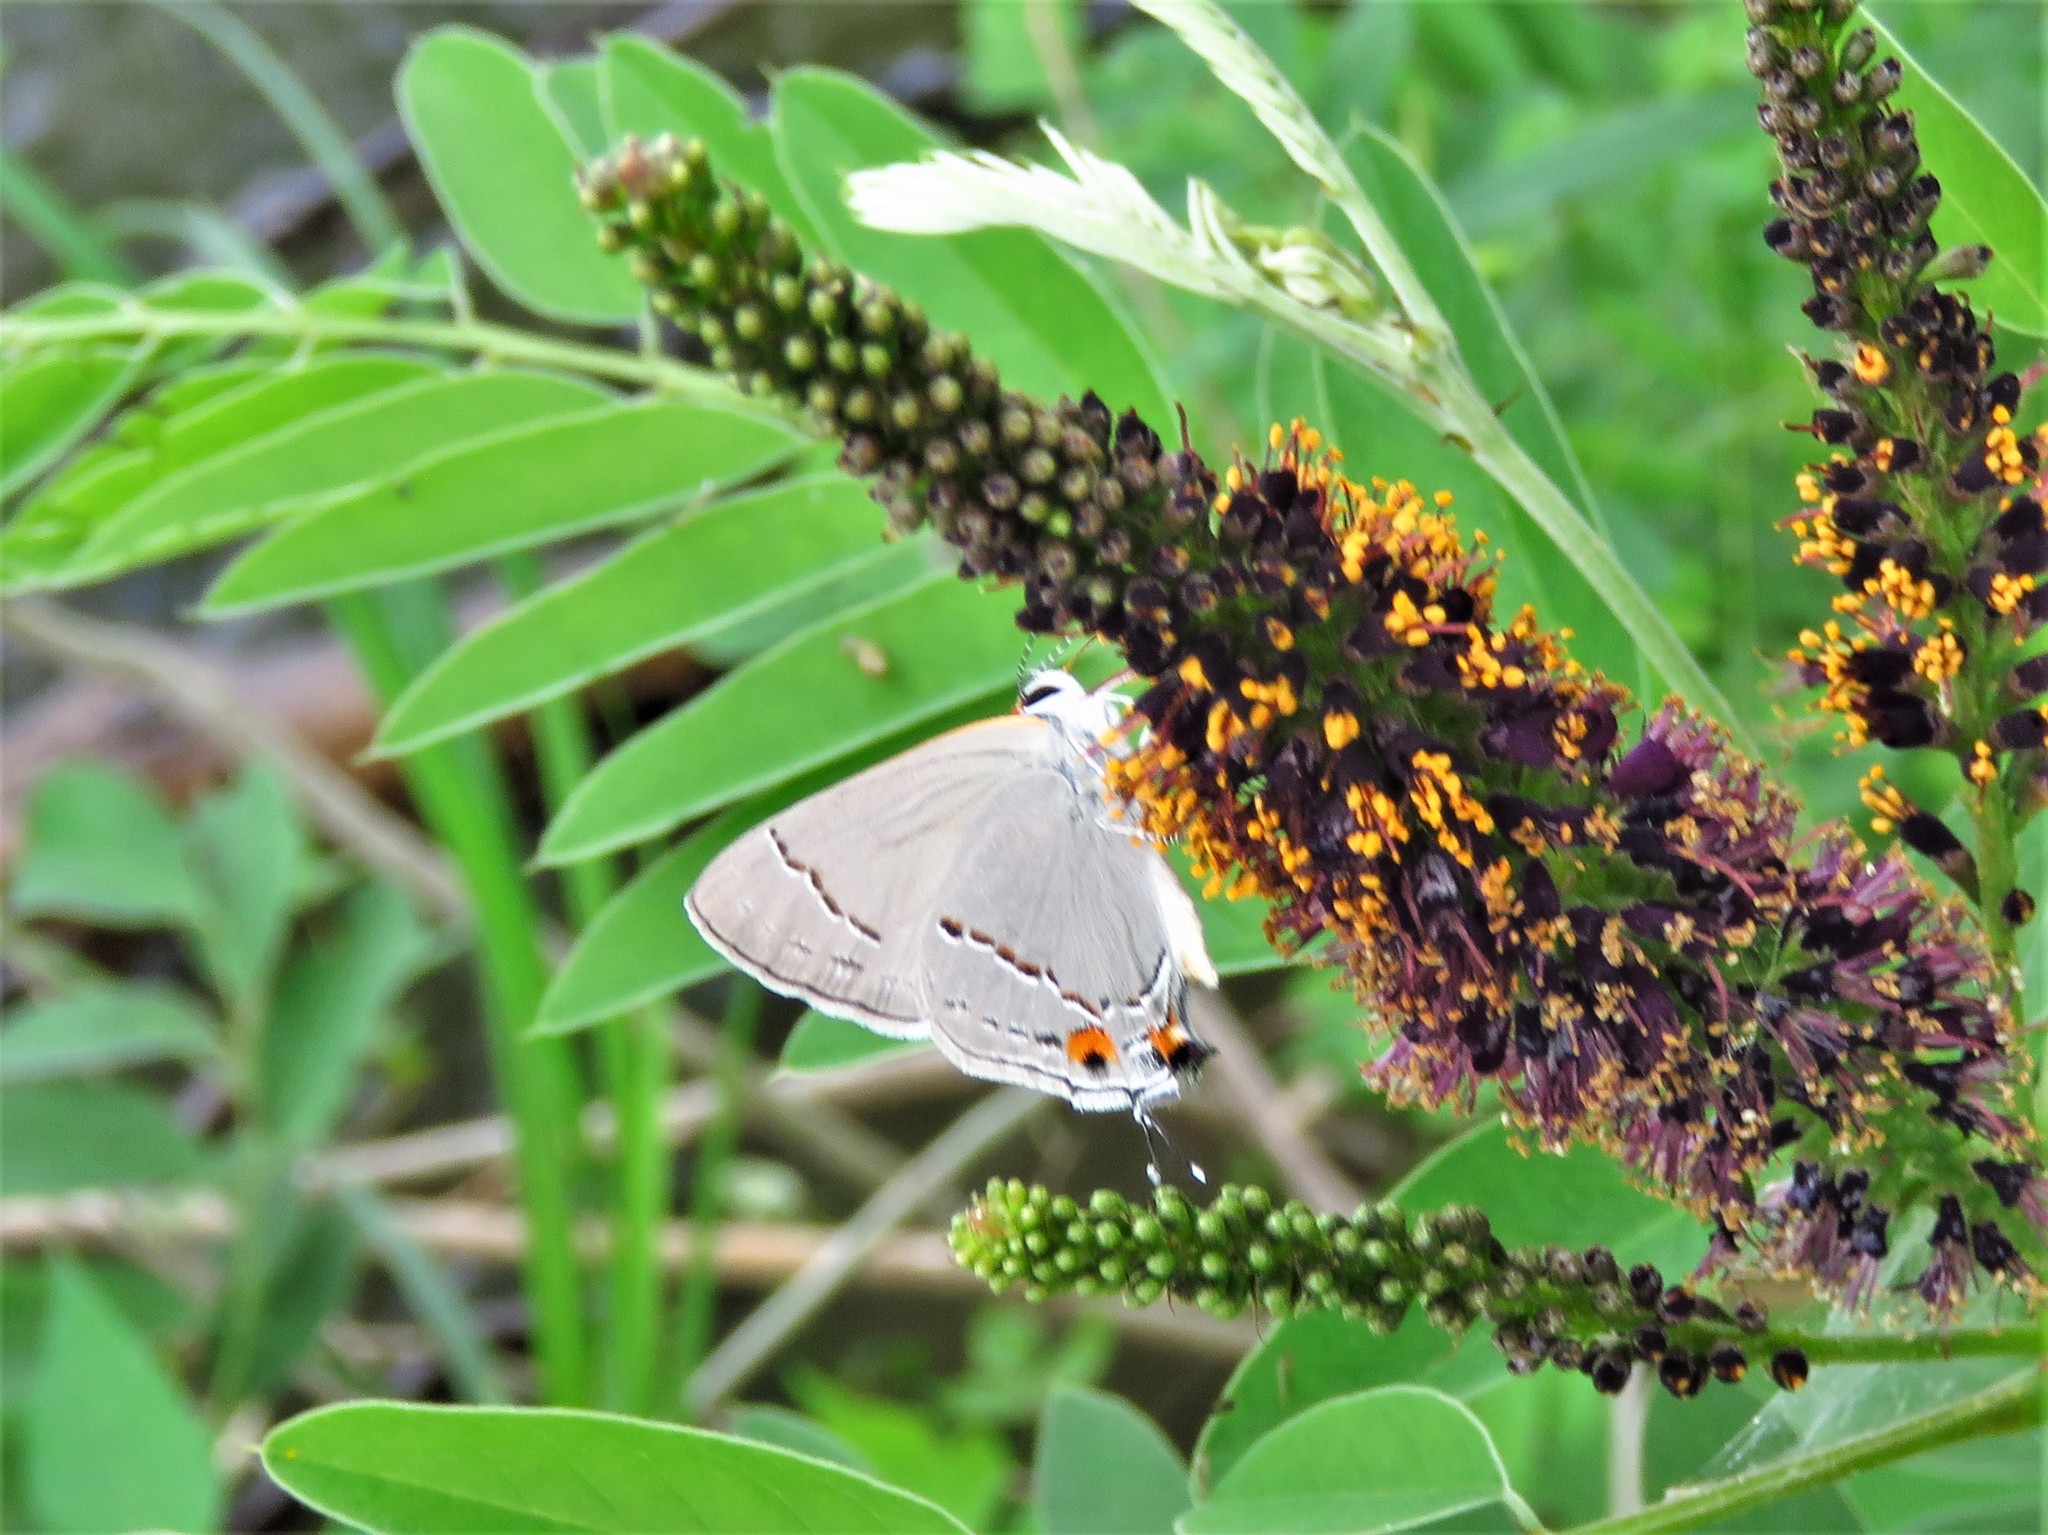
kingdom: Animalia
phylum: Arthropoda
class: Insecta
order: Lepidoptera
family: Lycaenidae
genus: Strymon
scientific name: Strymon melinus
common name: Gray hairstreak
